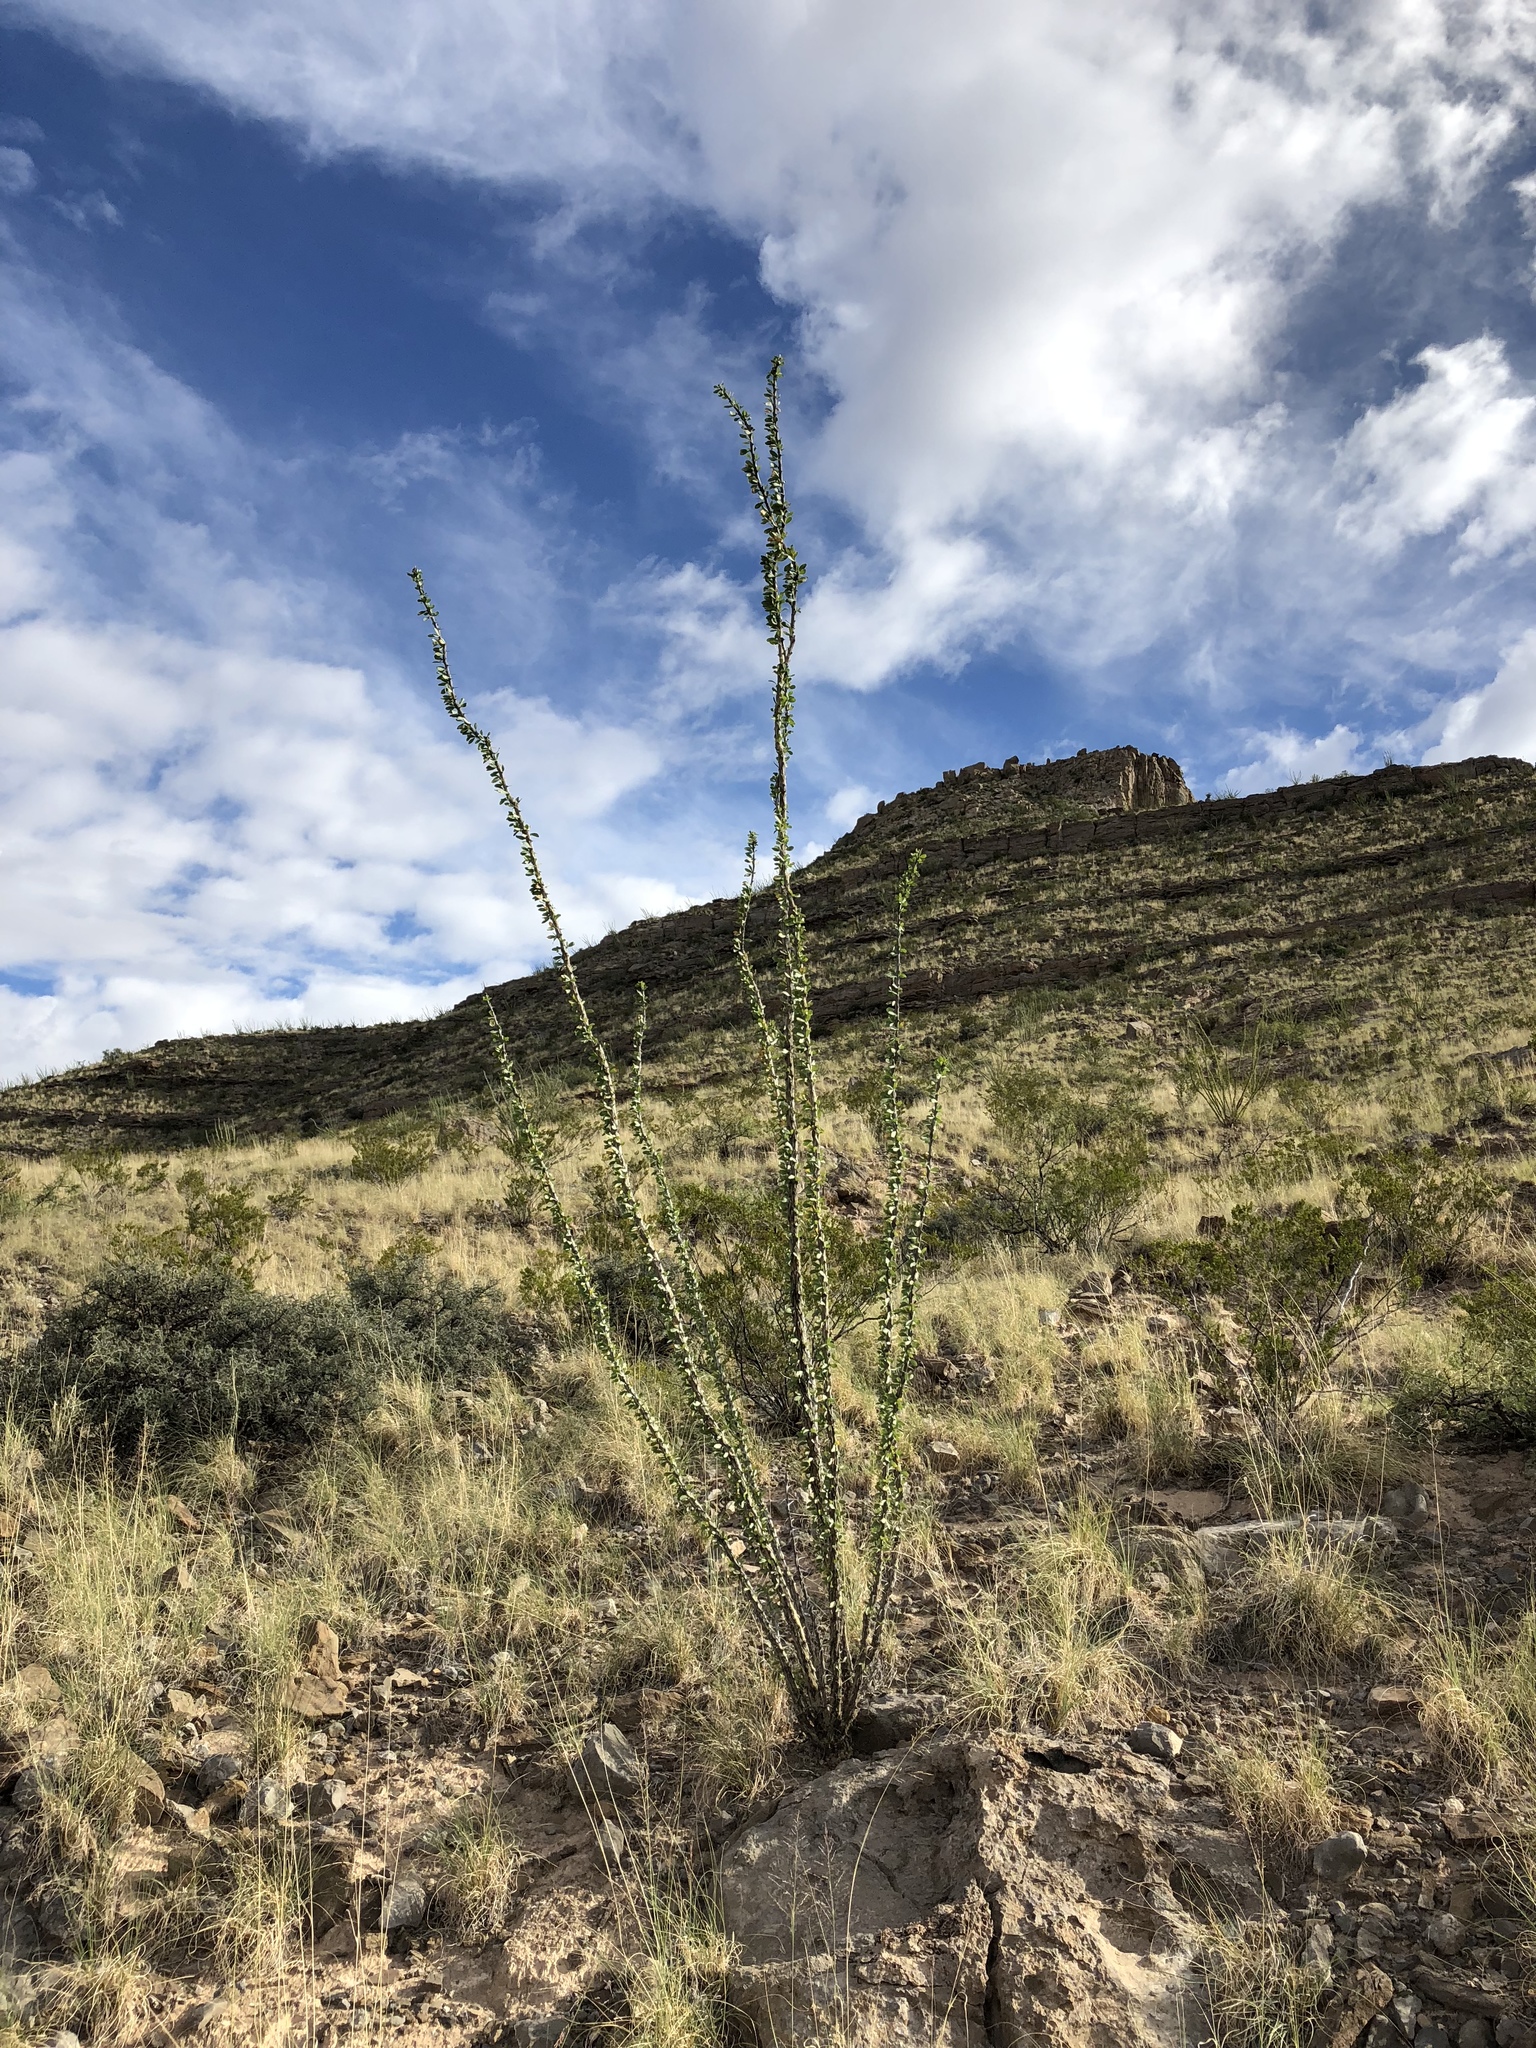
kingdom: Plantae
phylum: Tracheophyta
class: Magnoliopsida
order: Ericales
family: Fouquieriaceae
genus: Fouquieria
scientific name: Fouquieria splendens
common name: Vine-cactus
